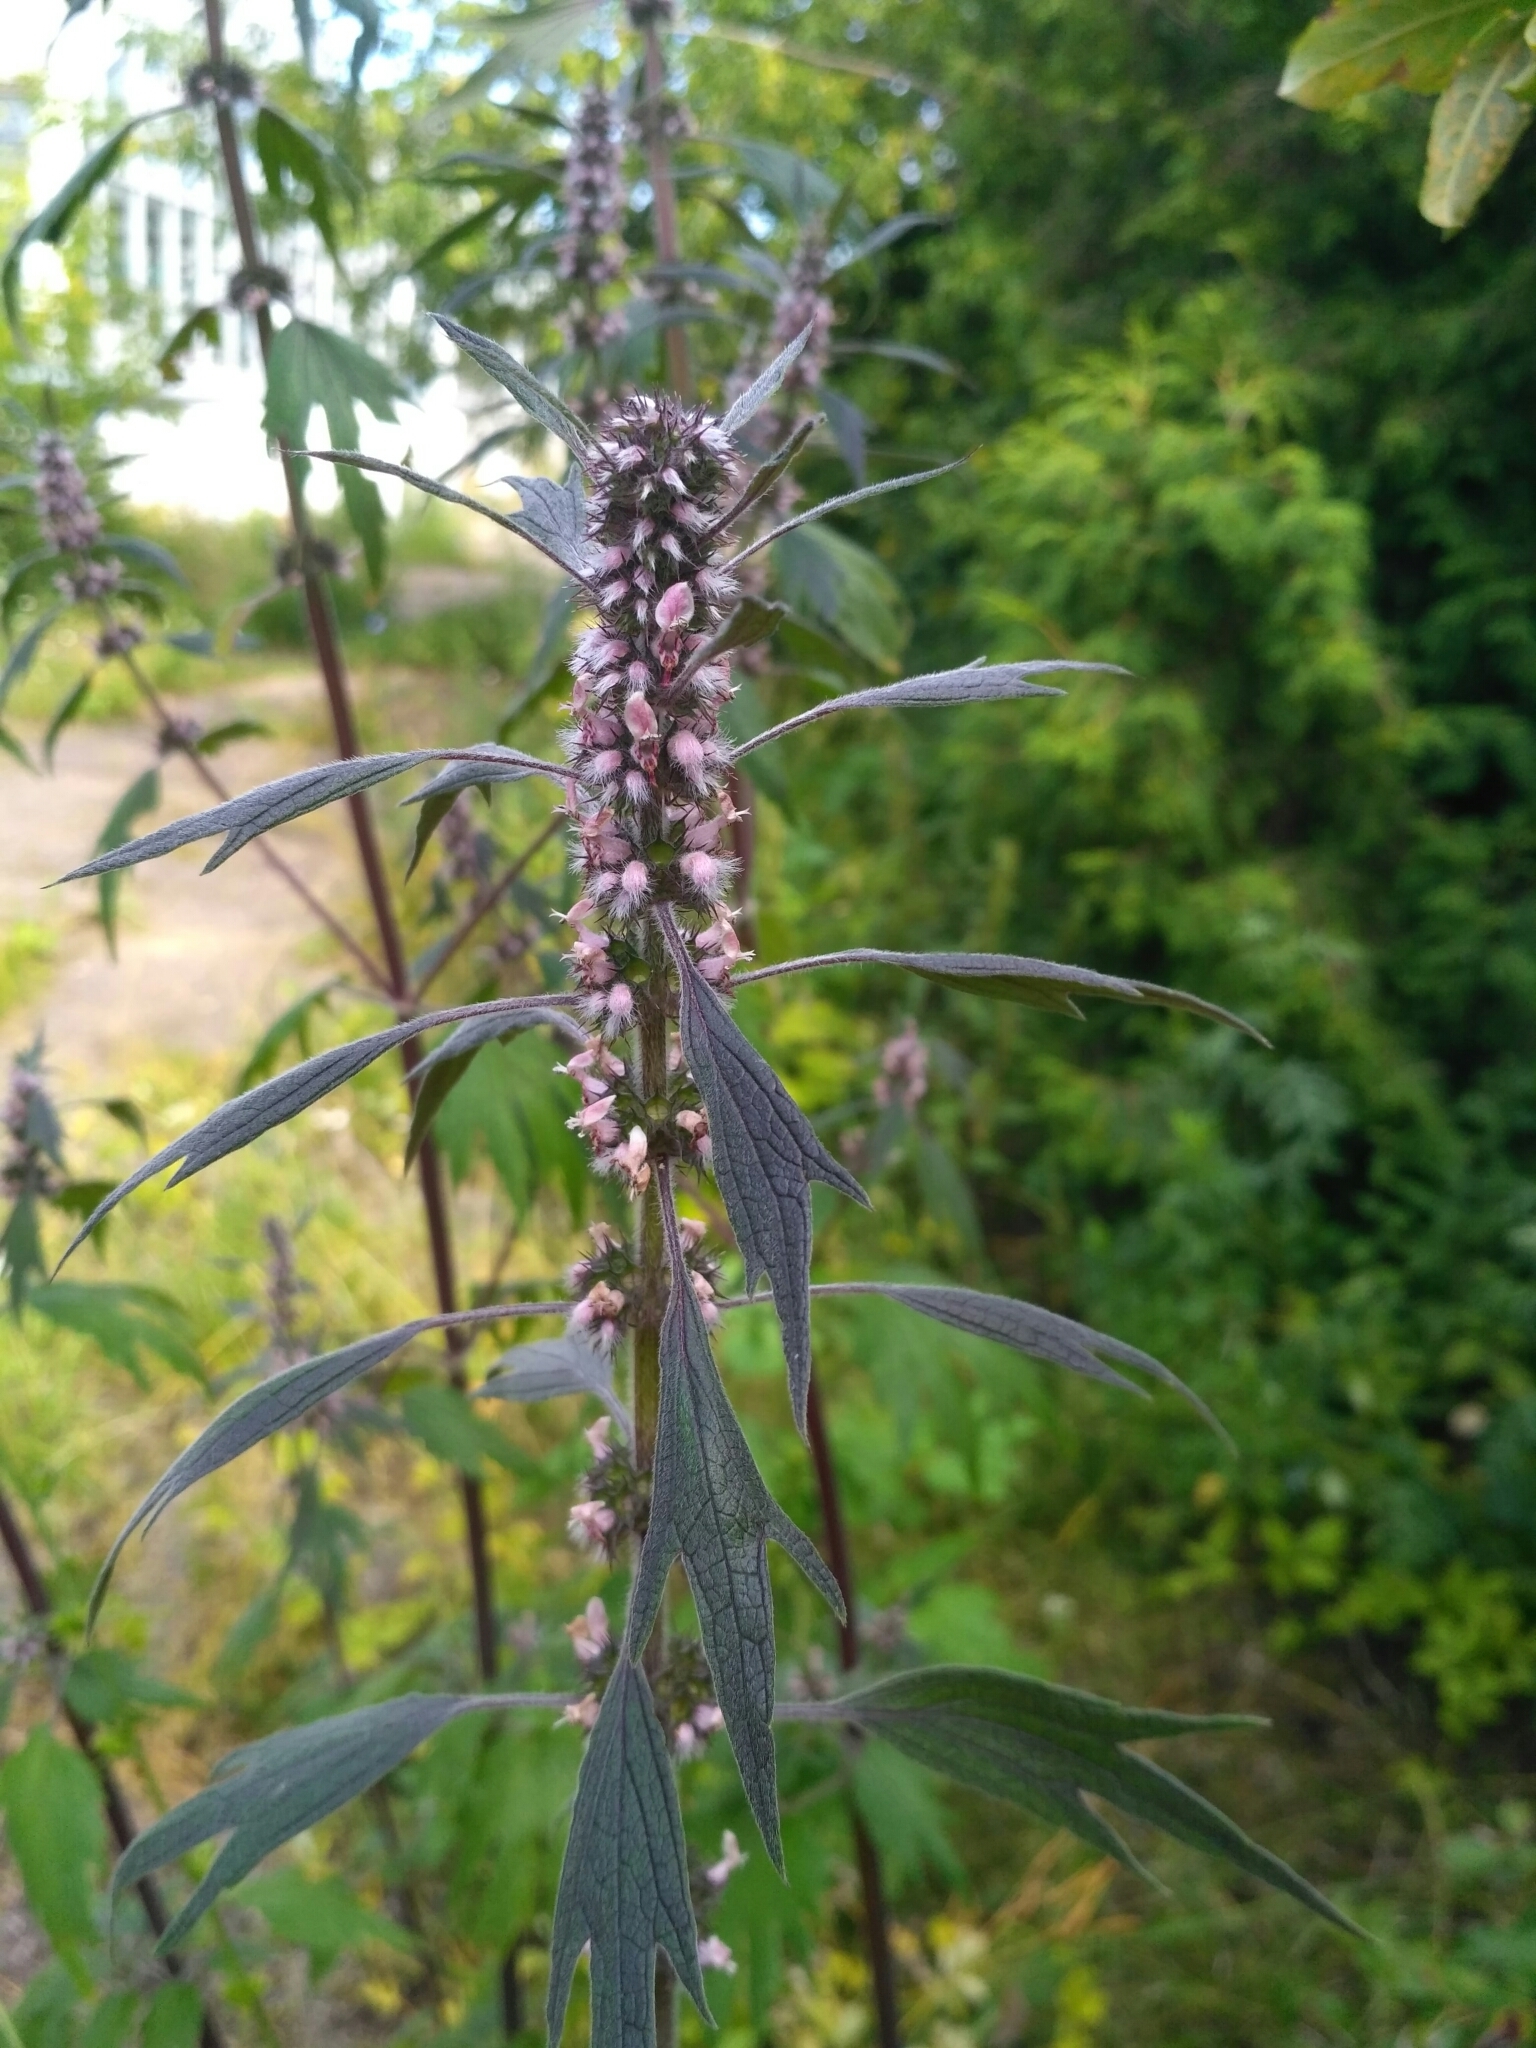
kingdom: Plantae
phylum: Tracheophyta
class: Magnoliopsida
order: Lamiales
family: Lamiaceae
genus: Leonurus
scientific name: Leonurus quinquelobatus
